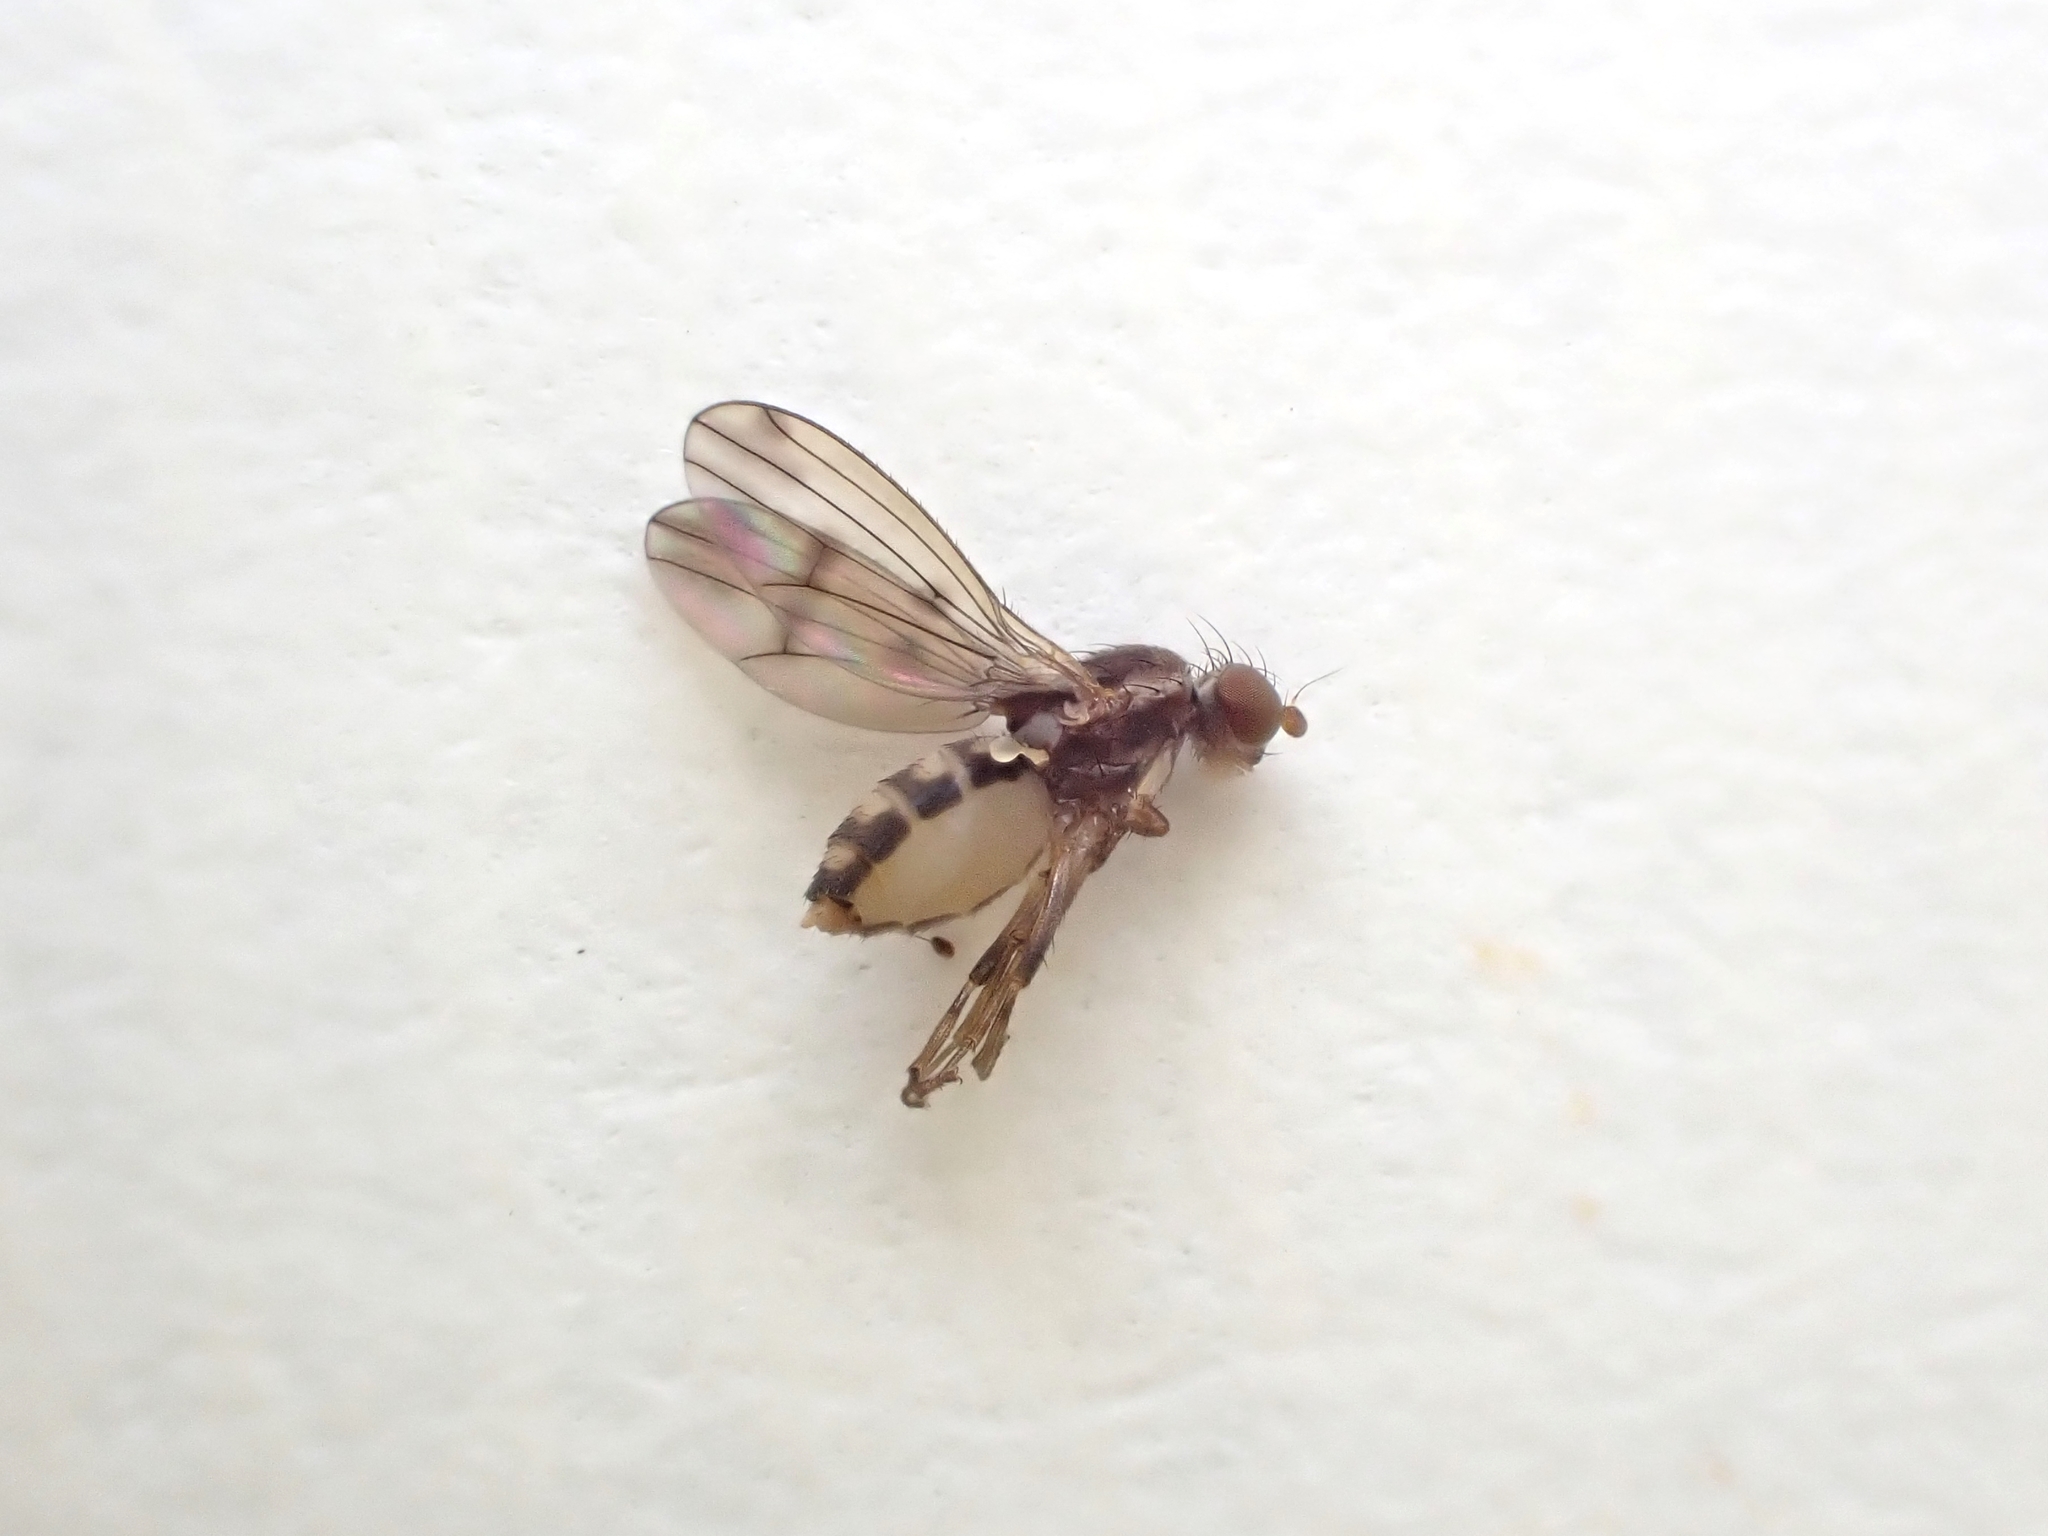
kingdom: Animalia
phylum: Arthropoda
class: Insecta
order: Diptera
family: Heleomyzidae
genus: Fenwickia
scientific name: Fenwickia hirsuta
